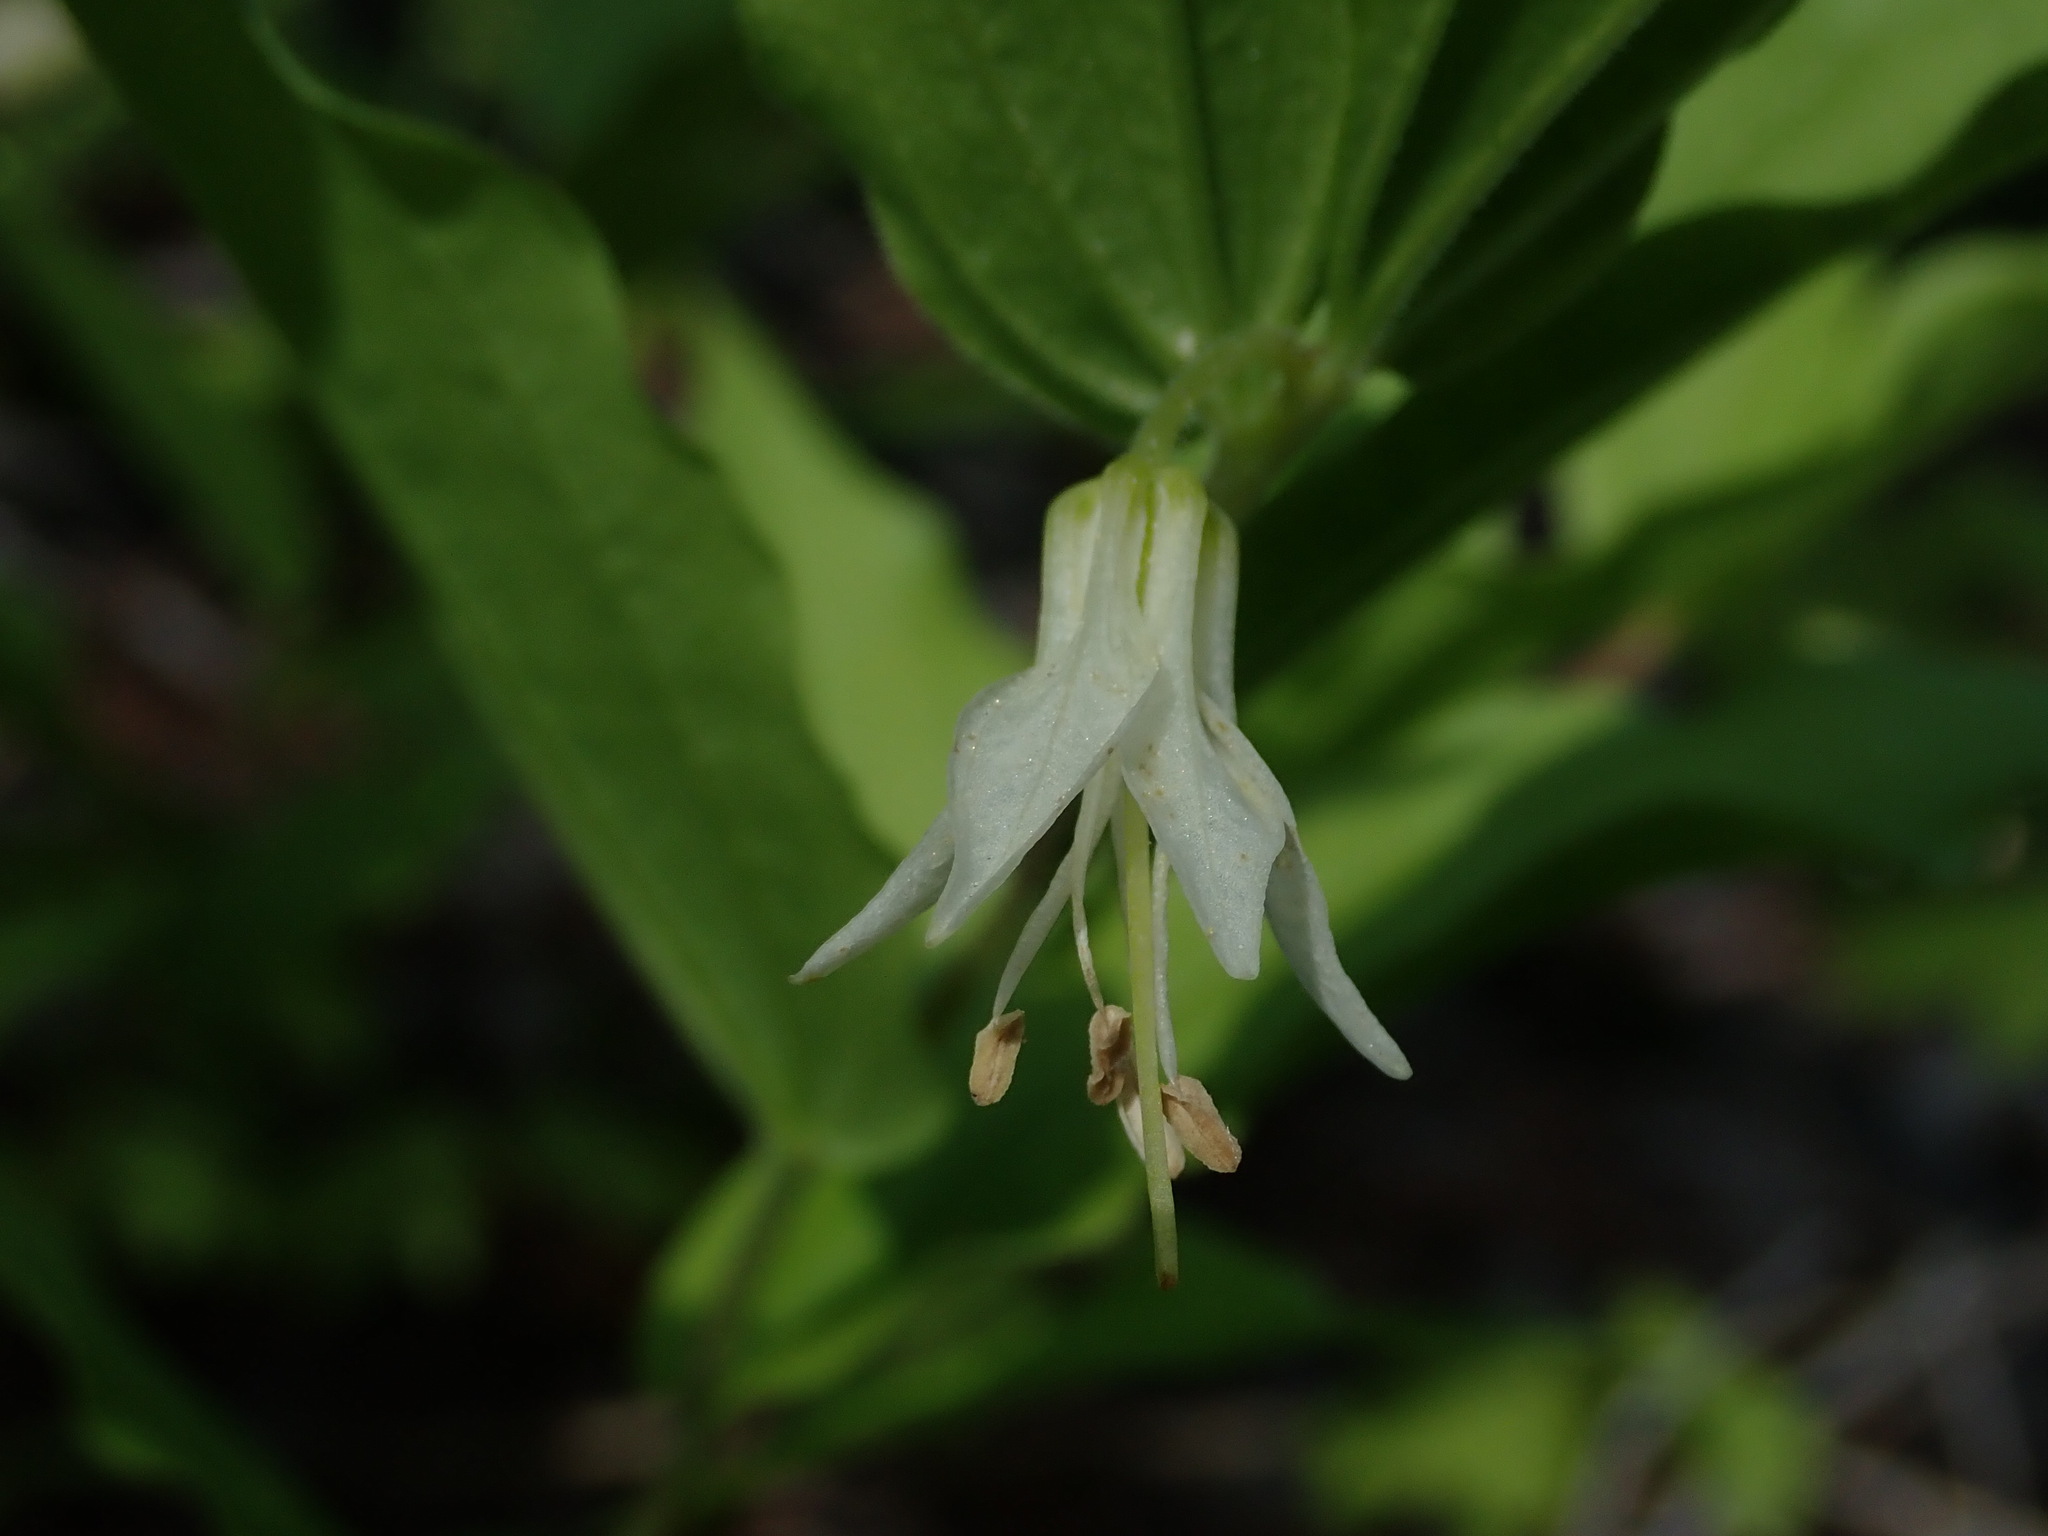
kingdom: Plantae
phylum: Tracheophyta
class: Liliopsida
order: Liliales
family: Liliaceae
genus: Prosartes
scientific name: Prosartes hookeri
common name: Fairy-bells
